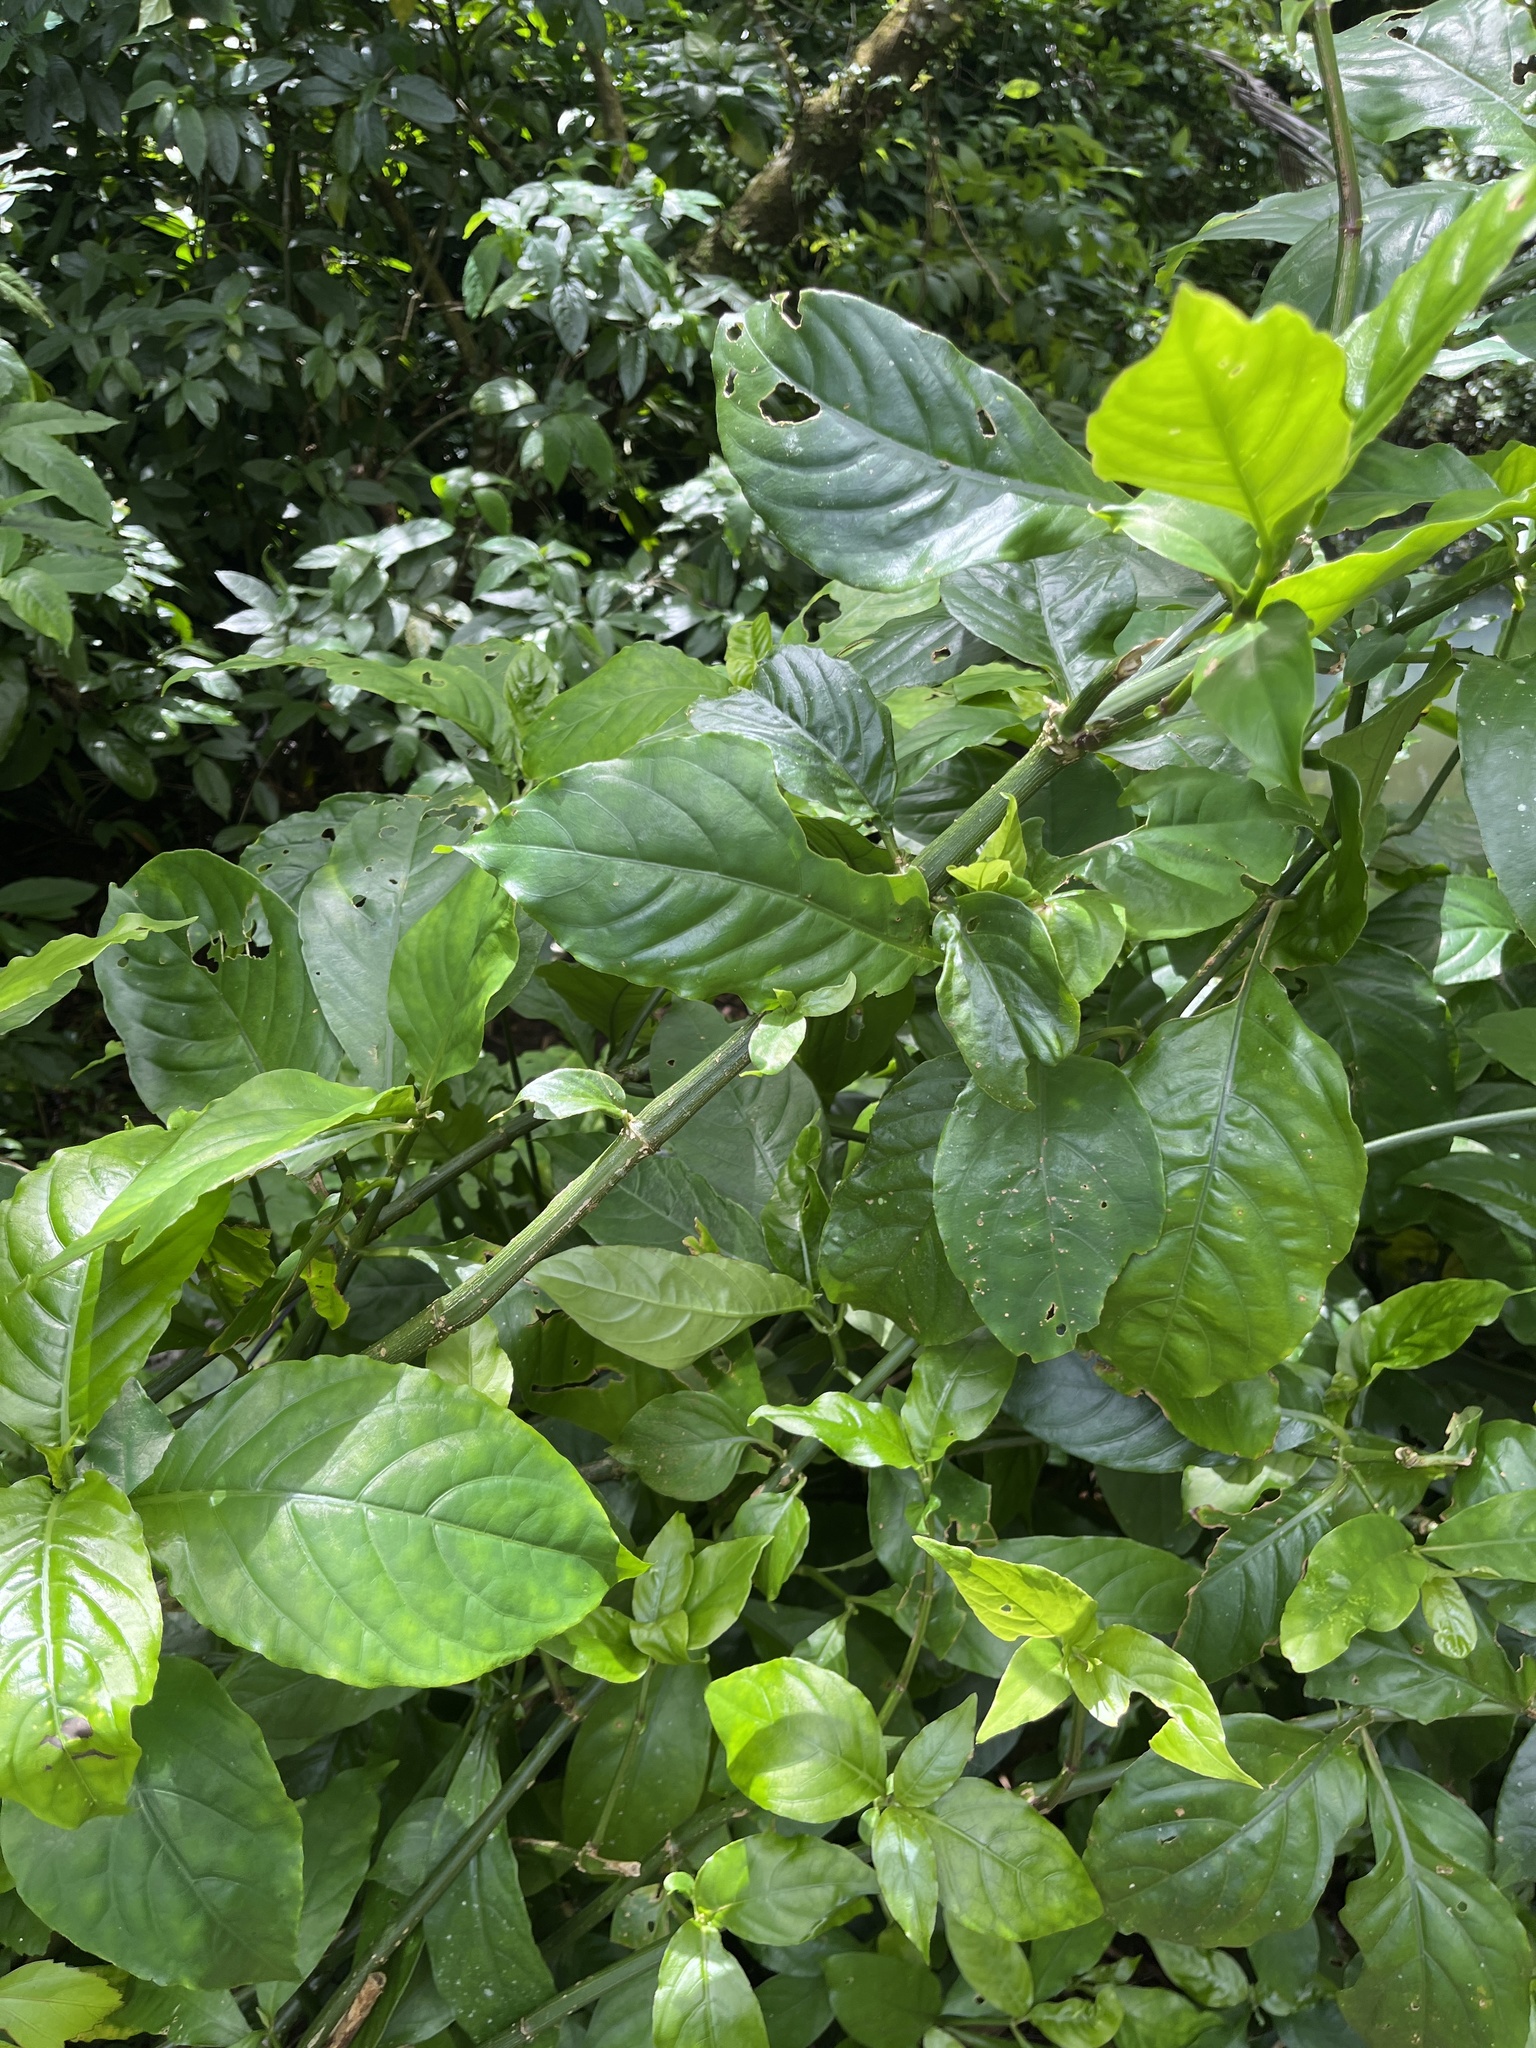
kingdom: Plantae
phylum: Tracheophyta
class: Magnoliopsida
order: Lamiales
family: Acanthaceae
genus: Odontonema
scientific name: Odontonema cuspidatum
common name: Mottled toothedthread
